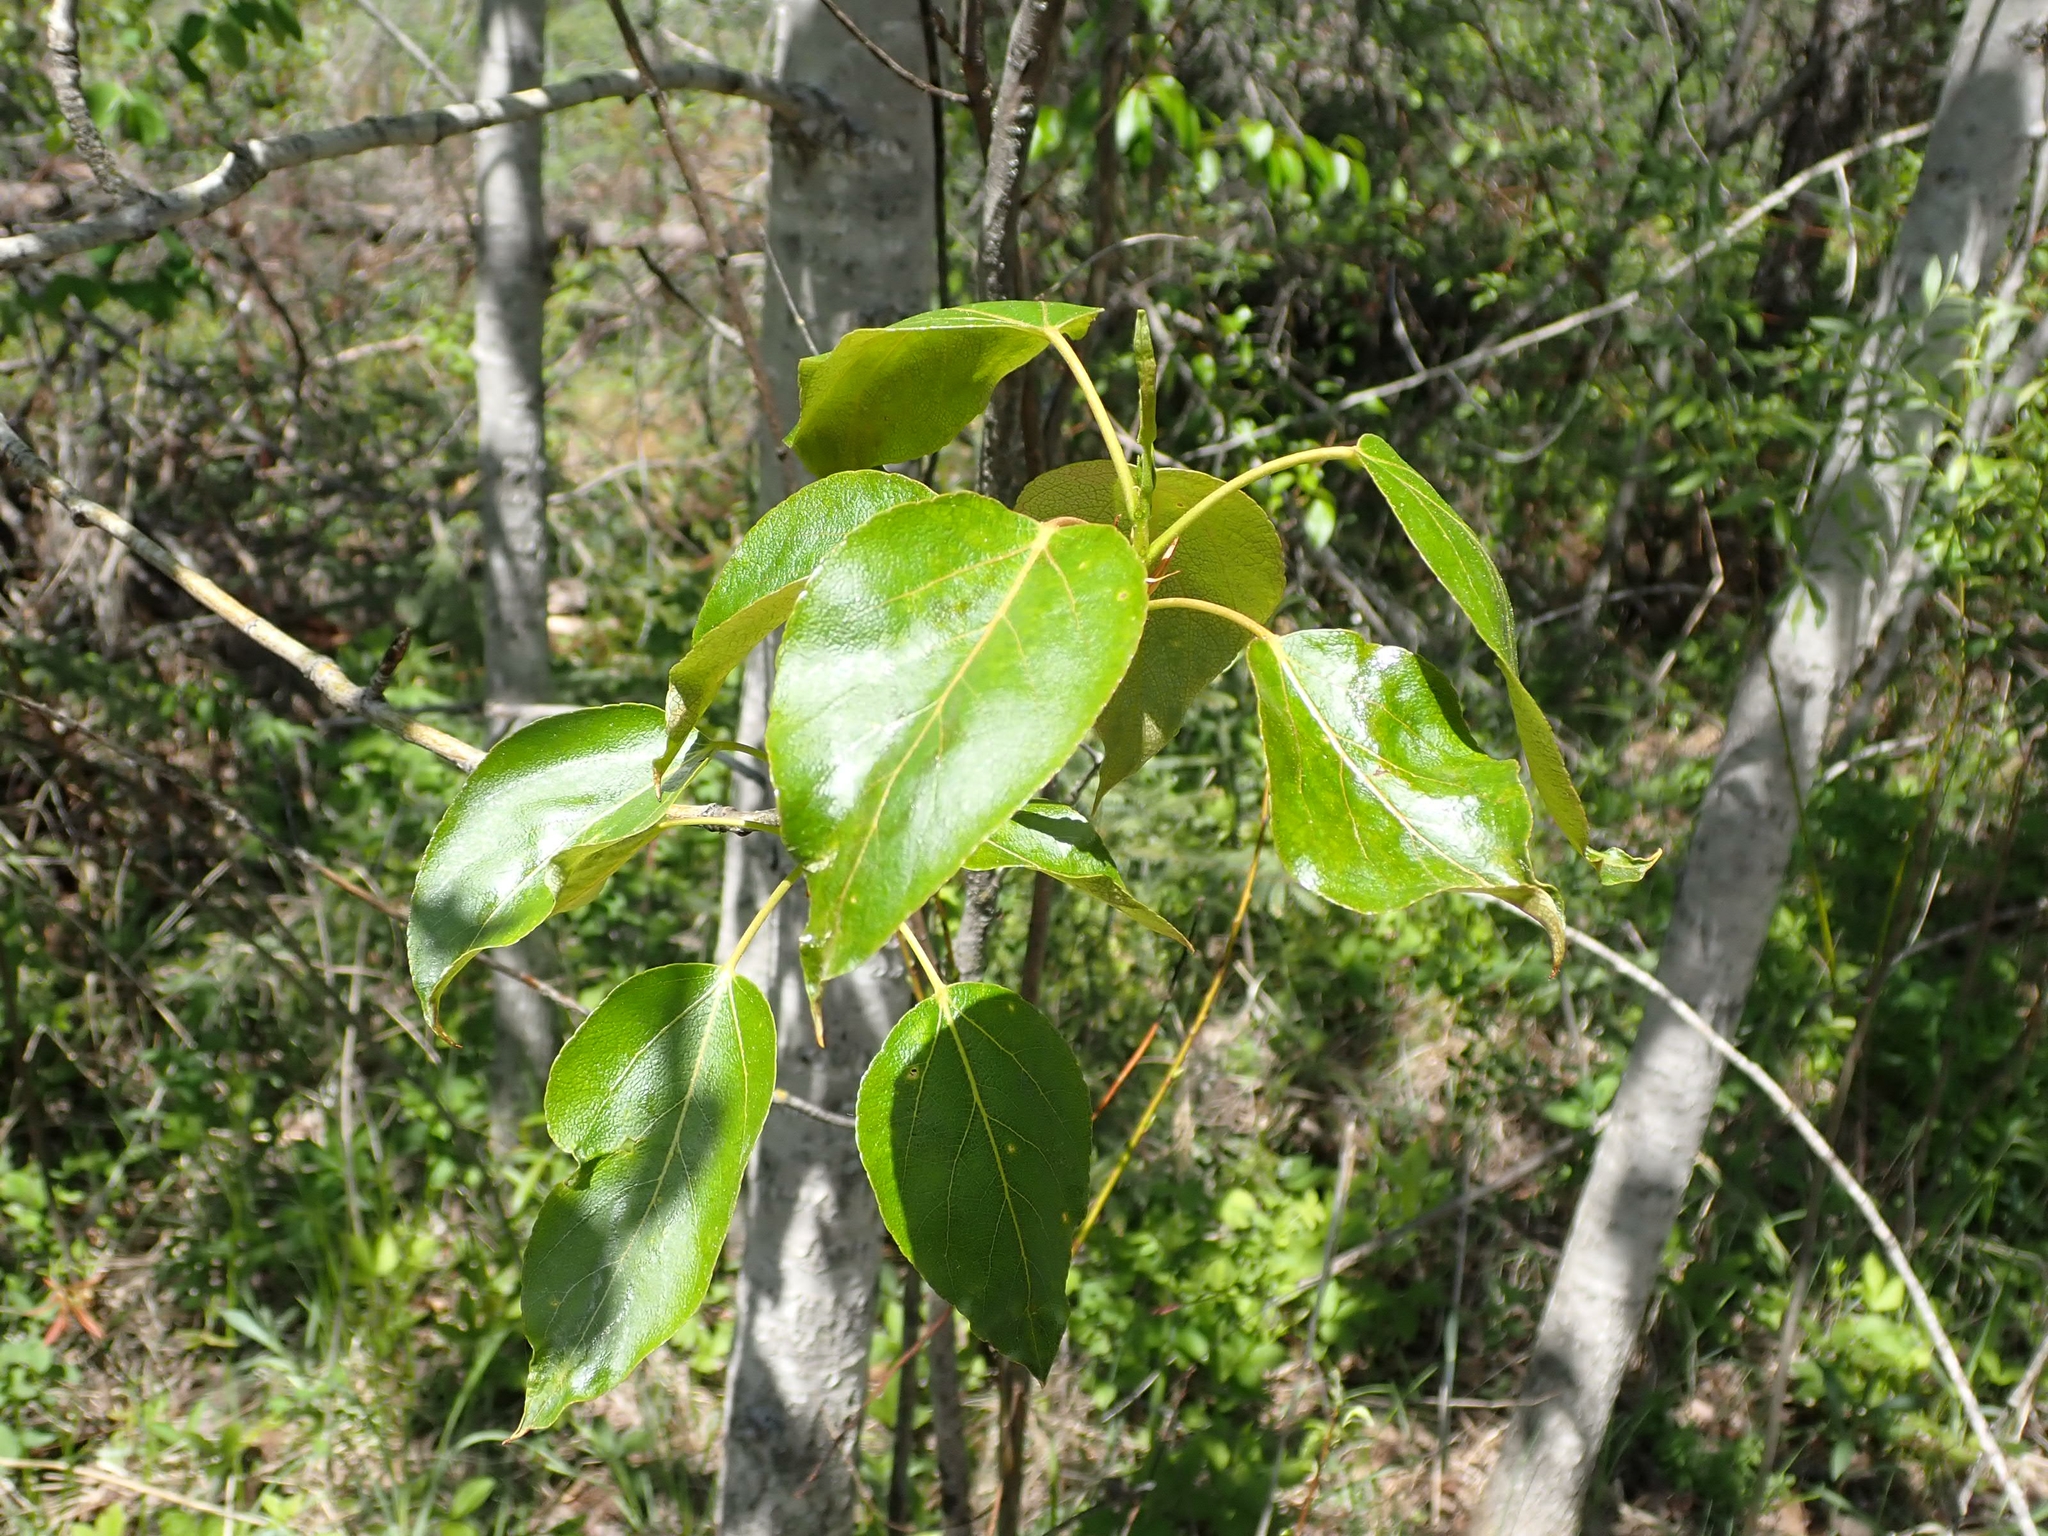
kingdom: Plantae
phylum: Tracheophyta
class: Magnoliopsida
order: Malpighiales
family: Salicaceae
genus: Populus
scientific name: Populus balsamifera
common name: Balsam poplar
